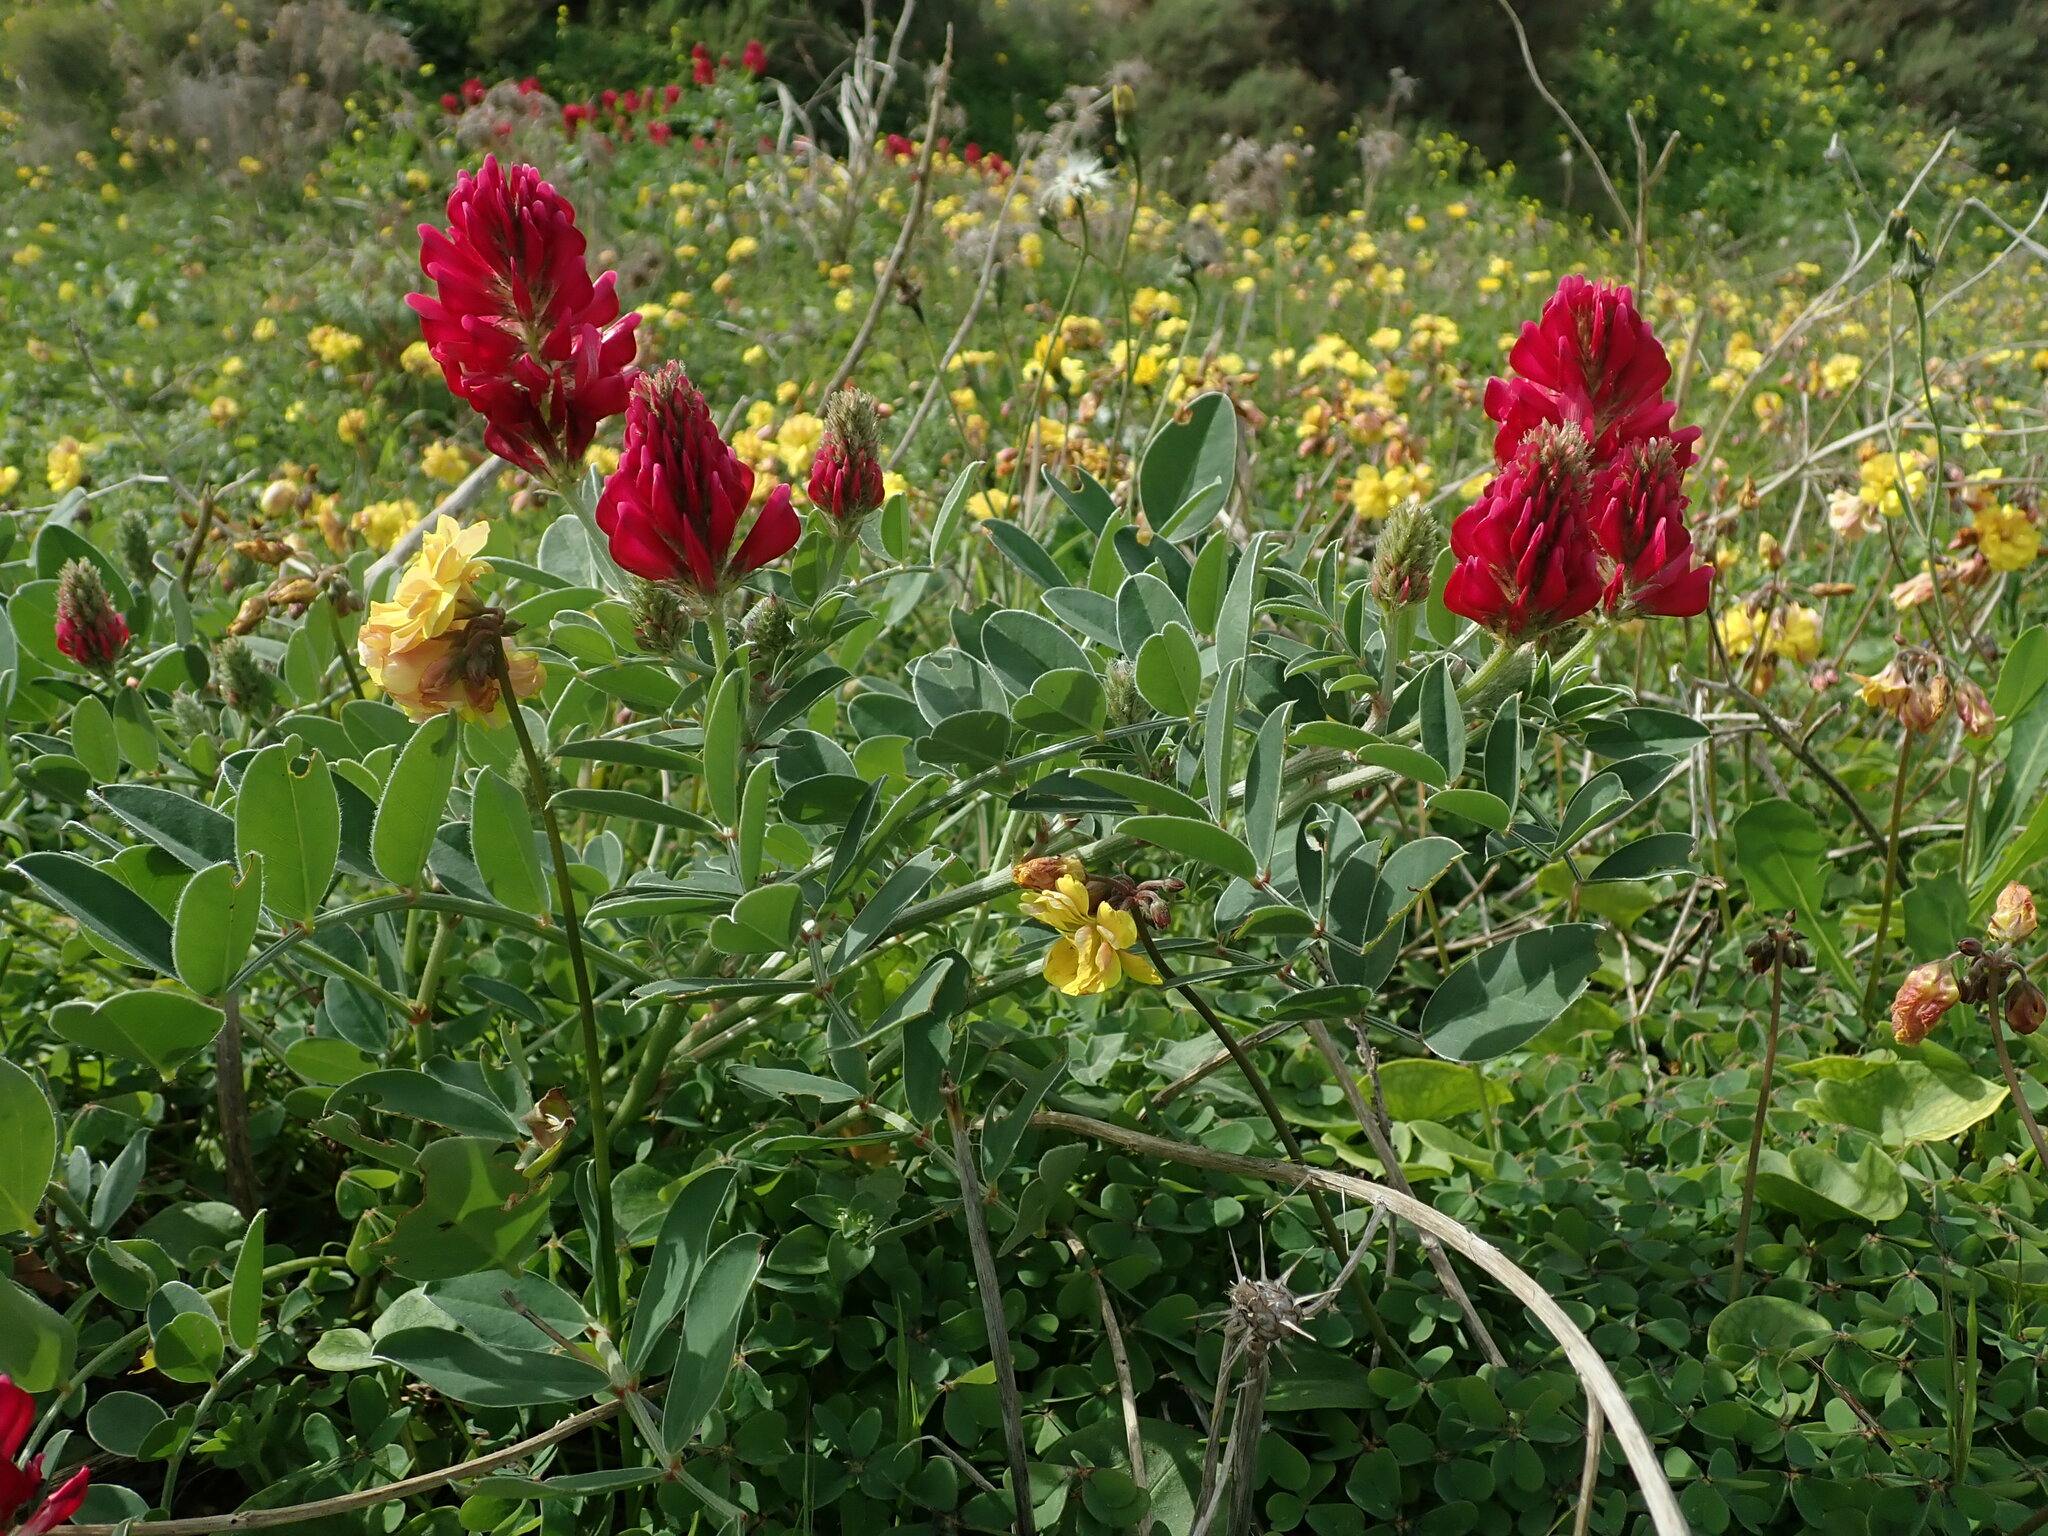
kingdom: Plantae
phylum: Tracheophyta
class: Magnoliopsida
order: Fabales
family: Fabaceae
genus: Sulla
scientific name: Sulla coronaria
